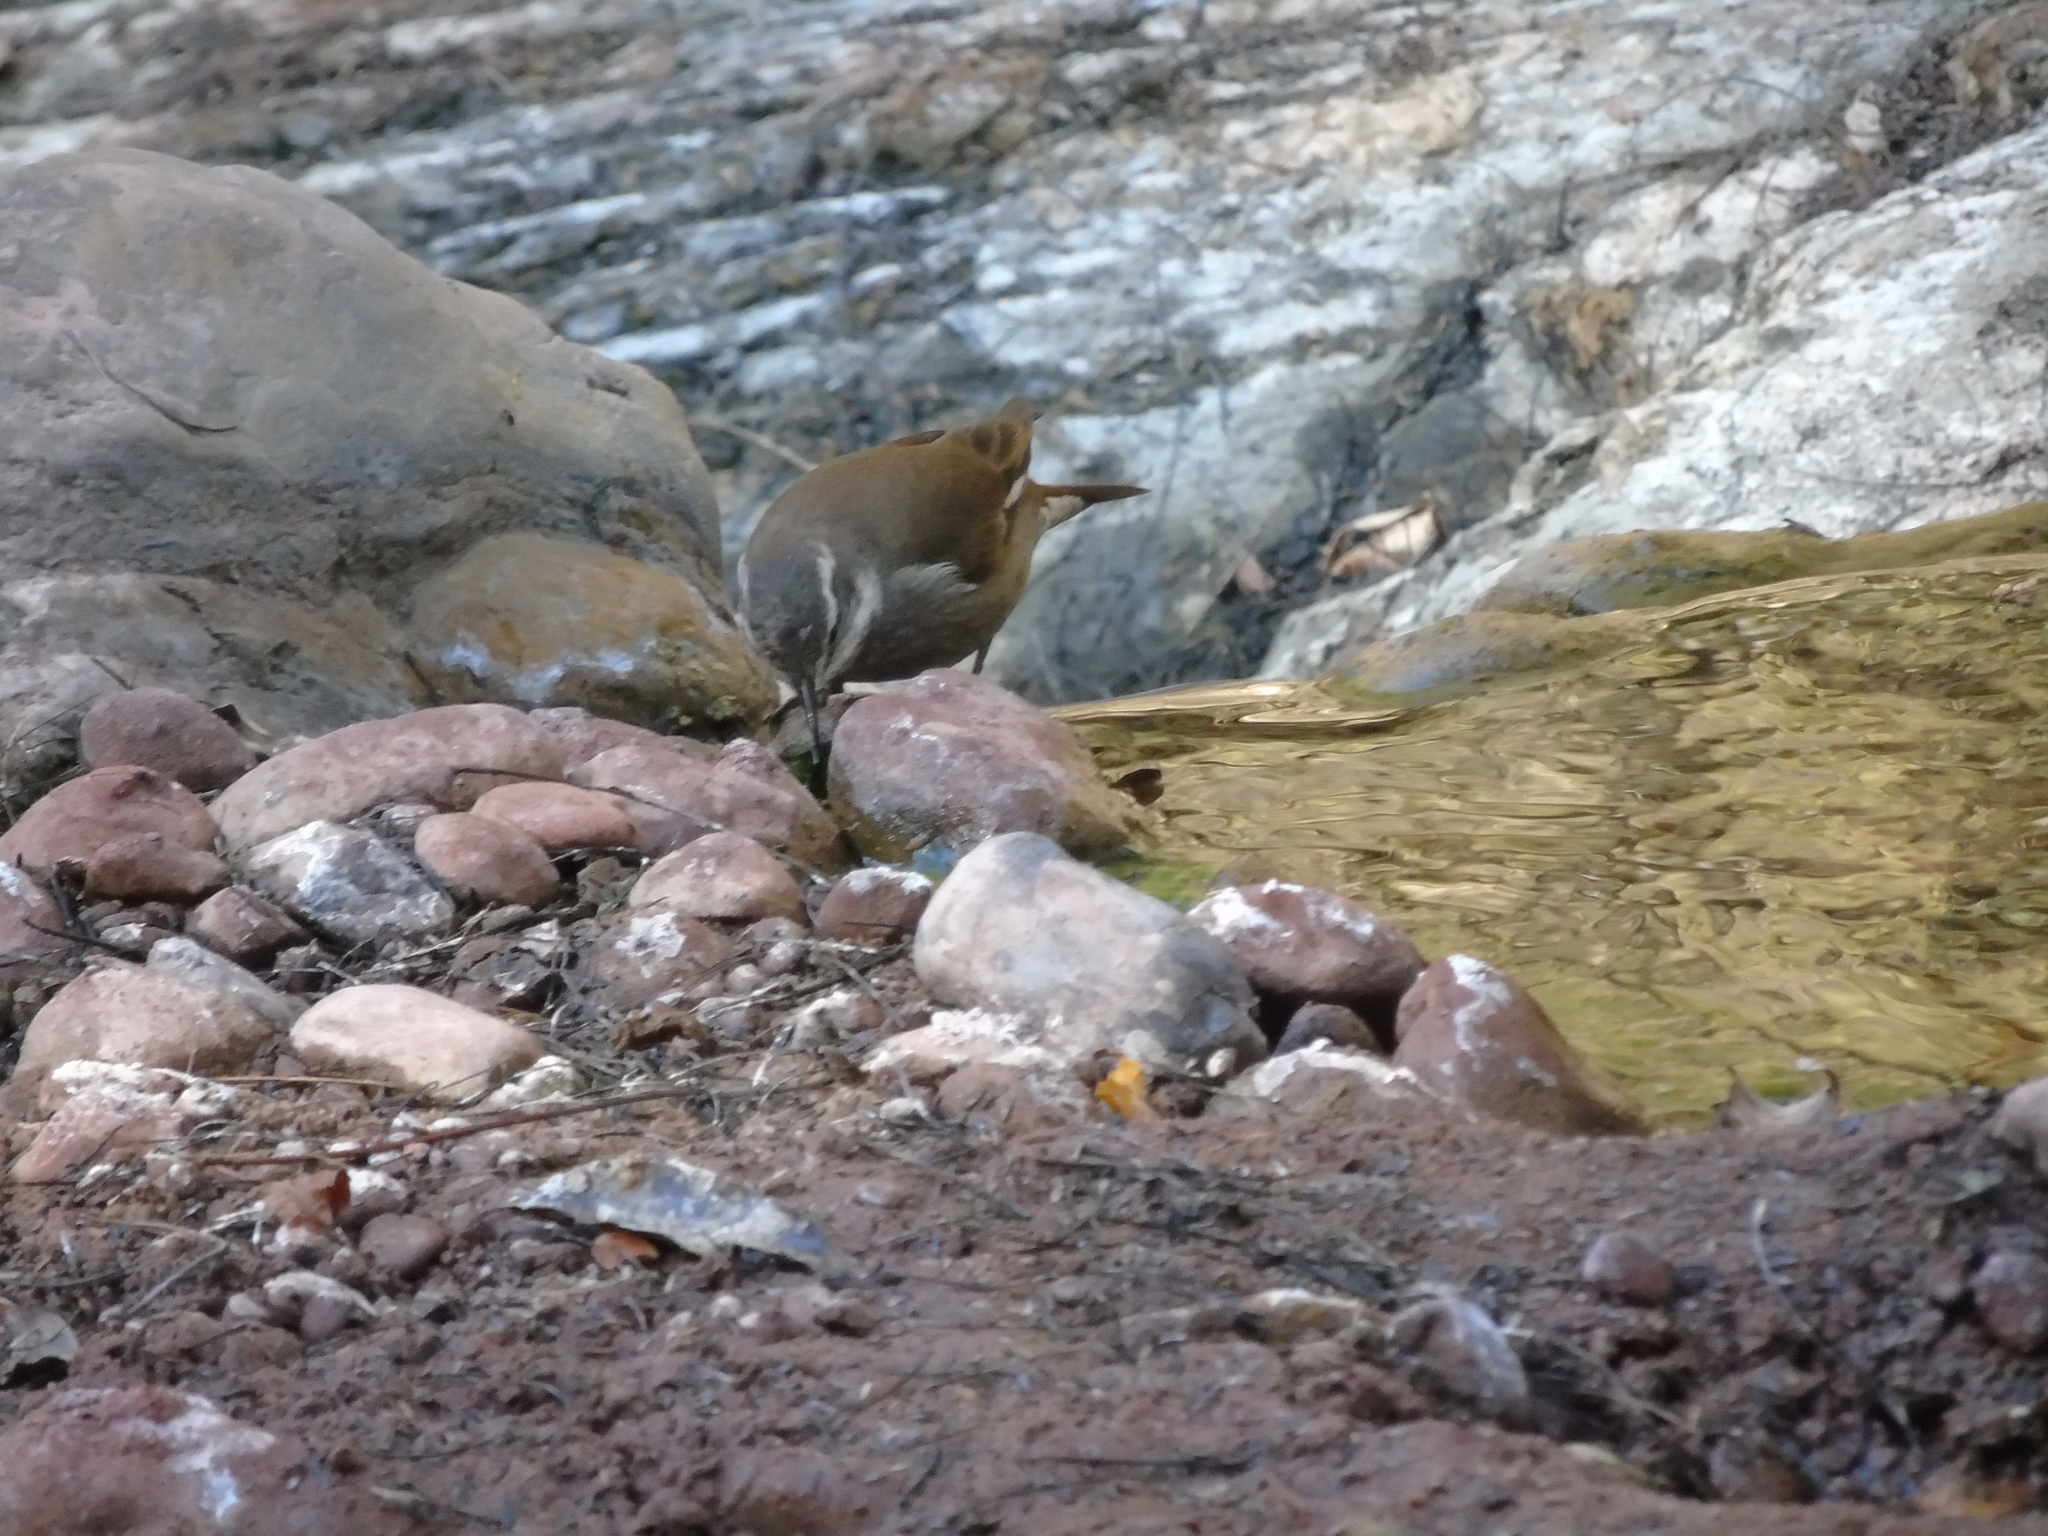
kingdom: Animalia
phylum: Chordata
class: Aves
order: Passeriformes
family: Furnariidae
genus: Cinclodes
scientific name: Cinclodes fuscus
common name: Buff-winged cinclodes
